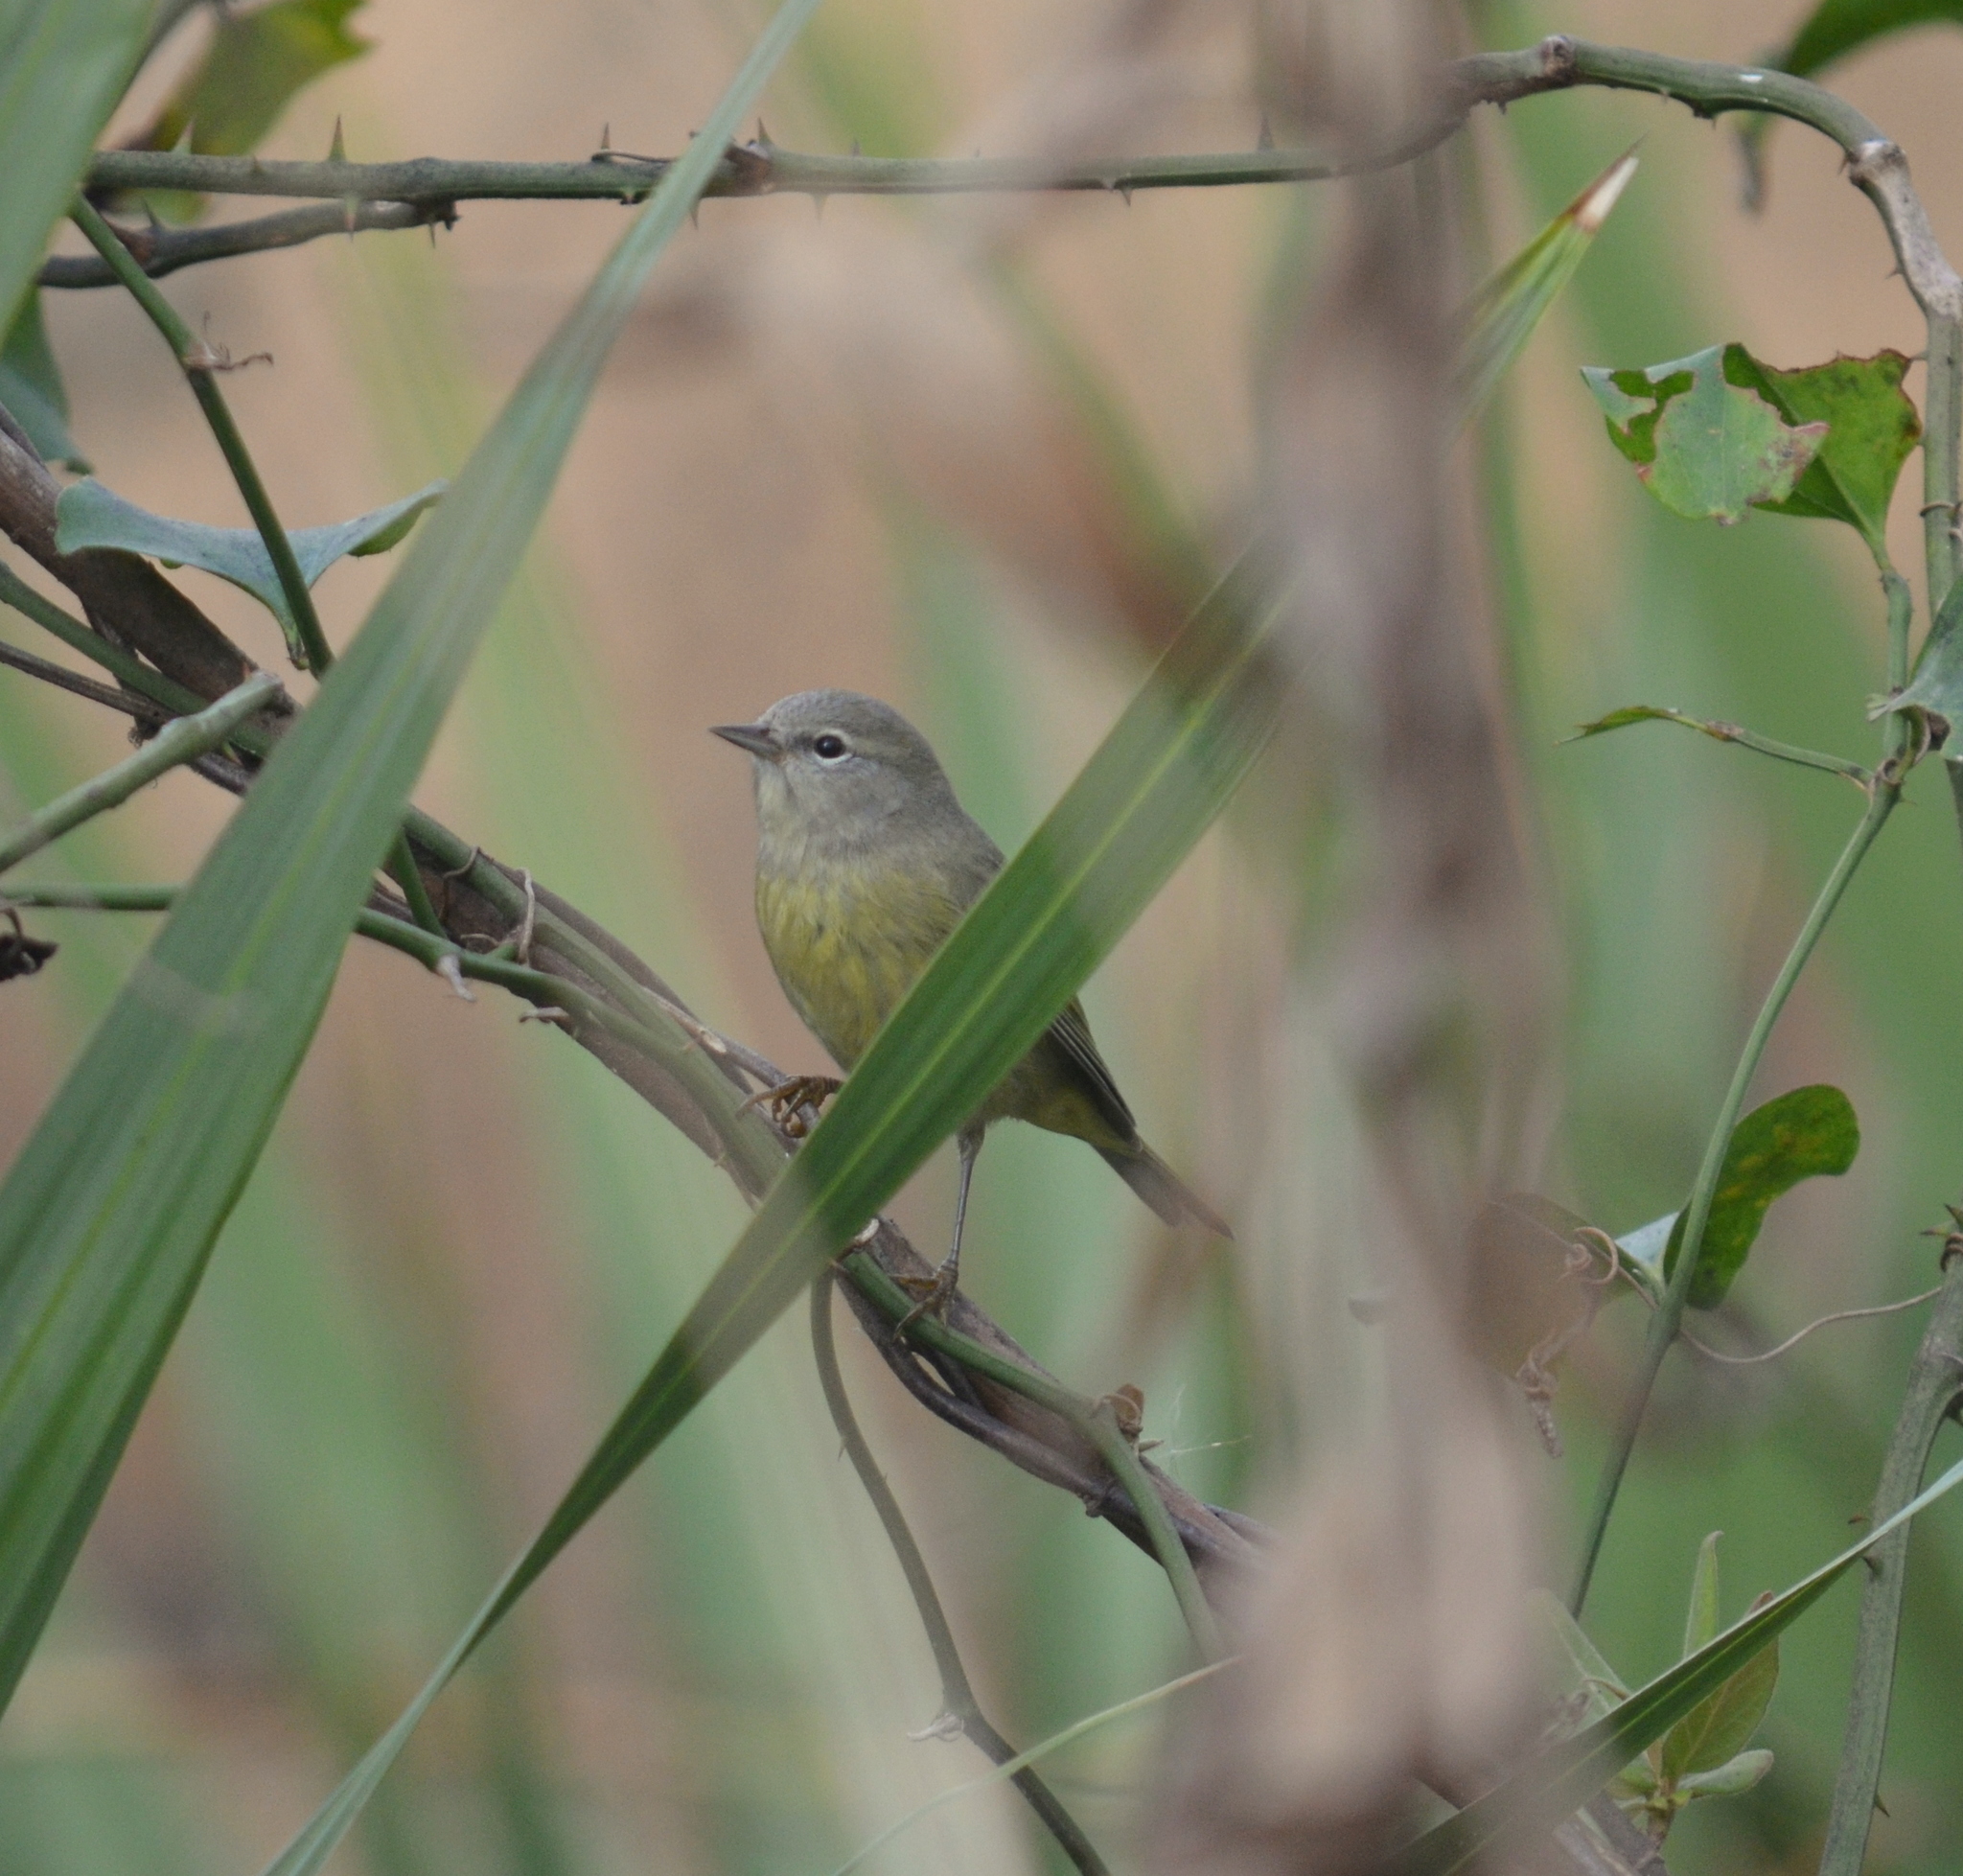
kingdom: Animalia
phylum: Chordata
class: Aves
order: Passeriformes
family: Parulidae
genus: Leiothlypis
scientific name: Leiothlypis celata
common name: Orange-crowned warbler
